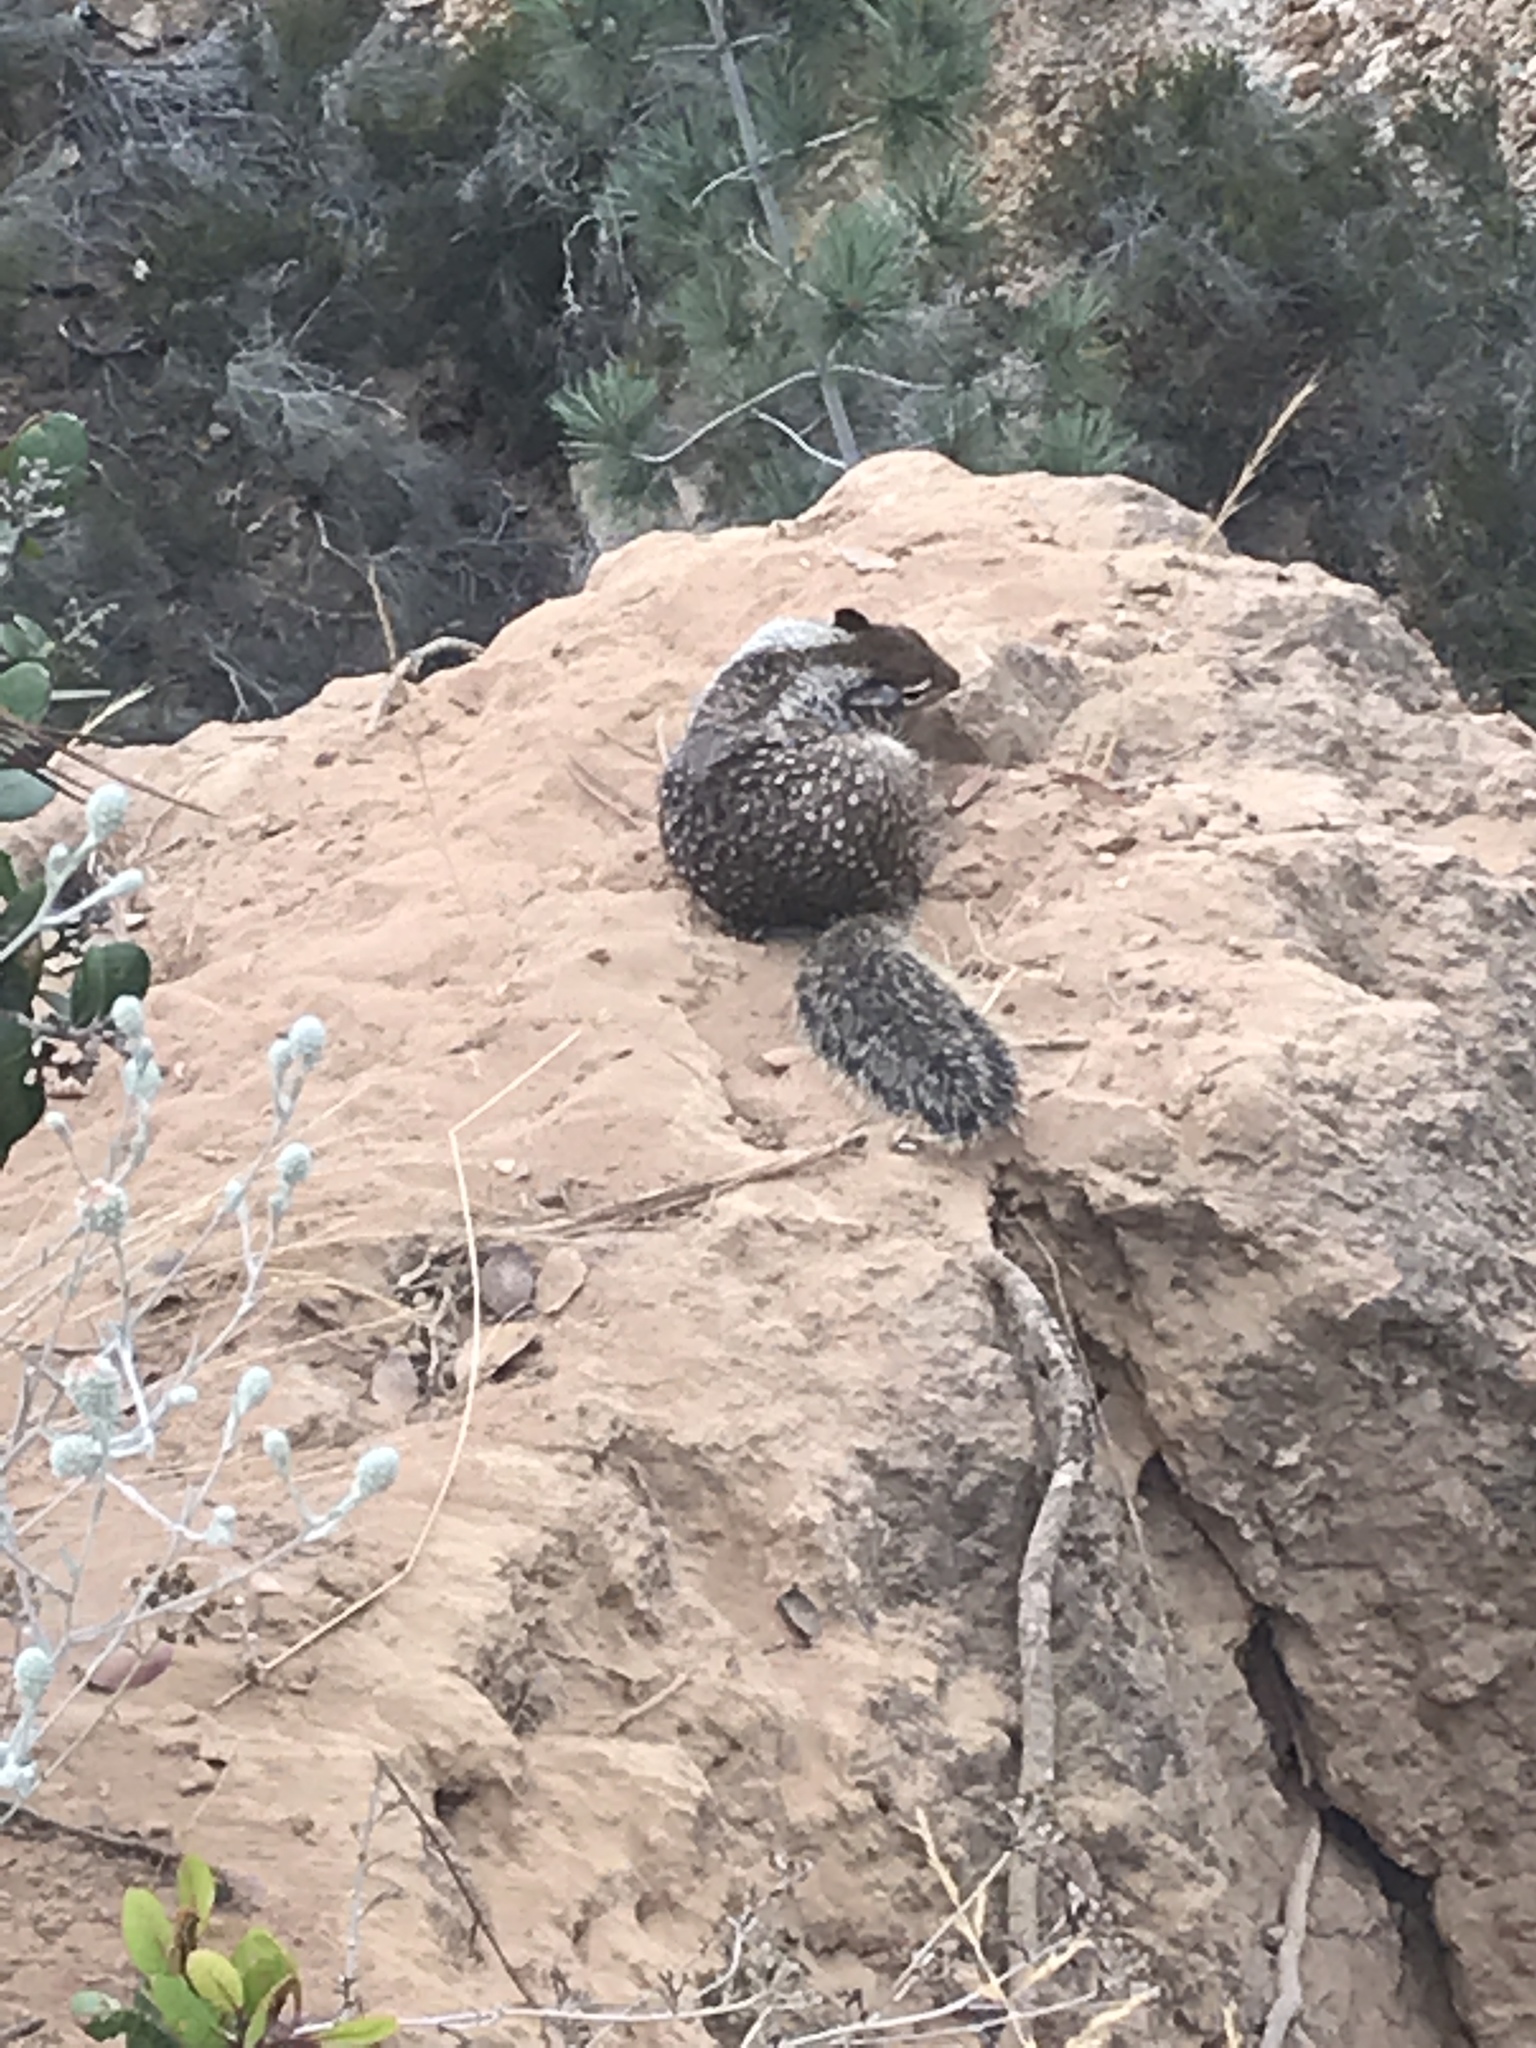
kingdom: Animalia
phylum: Chordata
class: Mammalia
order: Rodentia
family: Sciuridae
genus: Otospermophilus
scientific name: Otospermophilus beecheyi
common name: California ground squirrel
